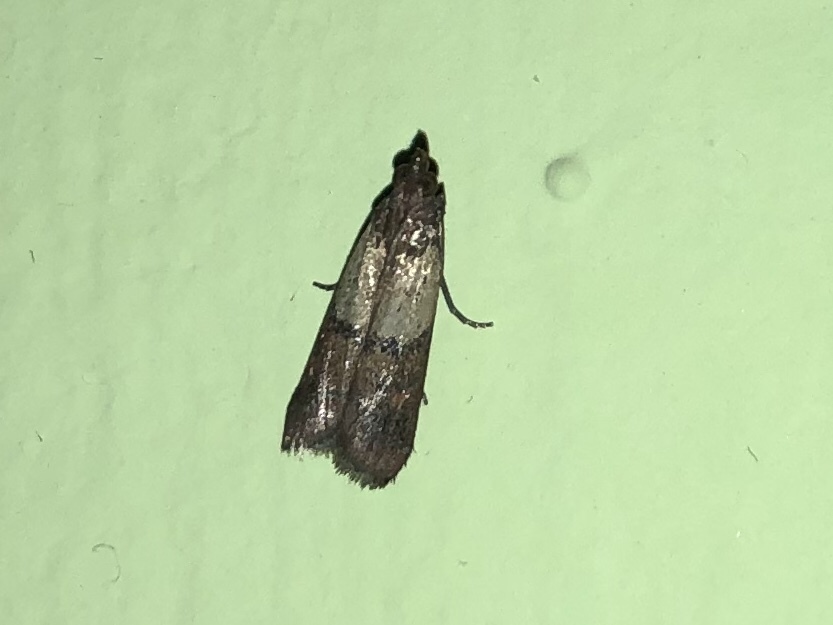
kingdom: Animalia
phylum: Arthropoda
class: Insecta
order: Lepidoptera
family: Pyralidae
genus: Plodia
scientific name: Plodia interpunctella
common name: Indian meal moth
